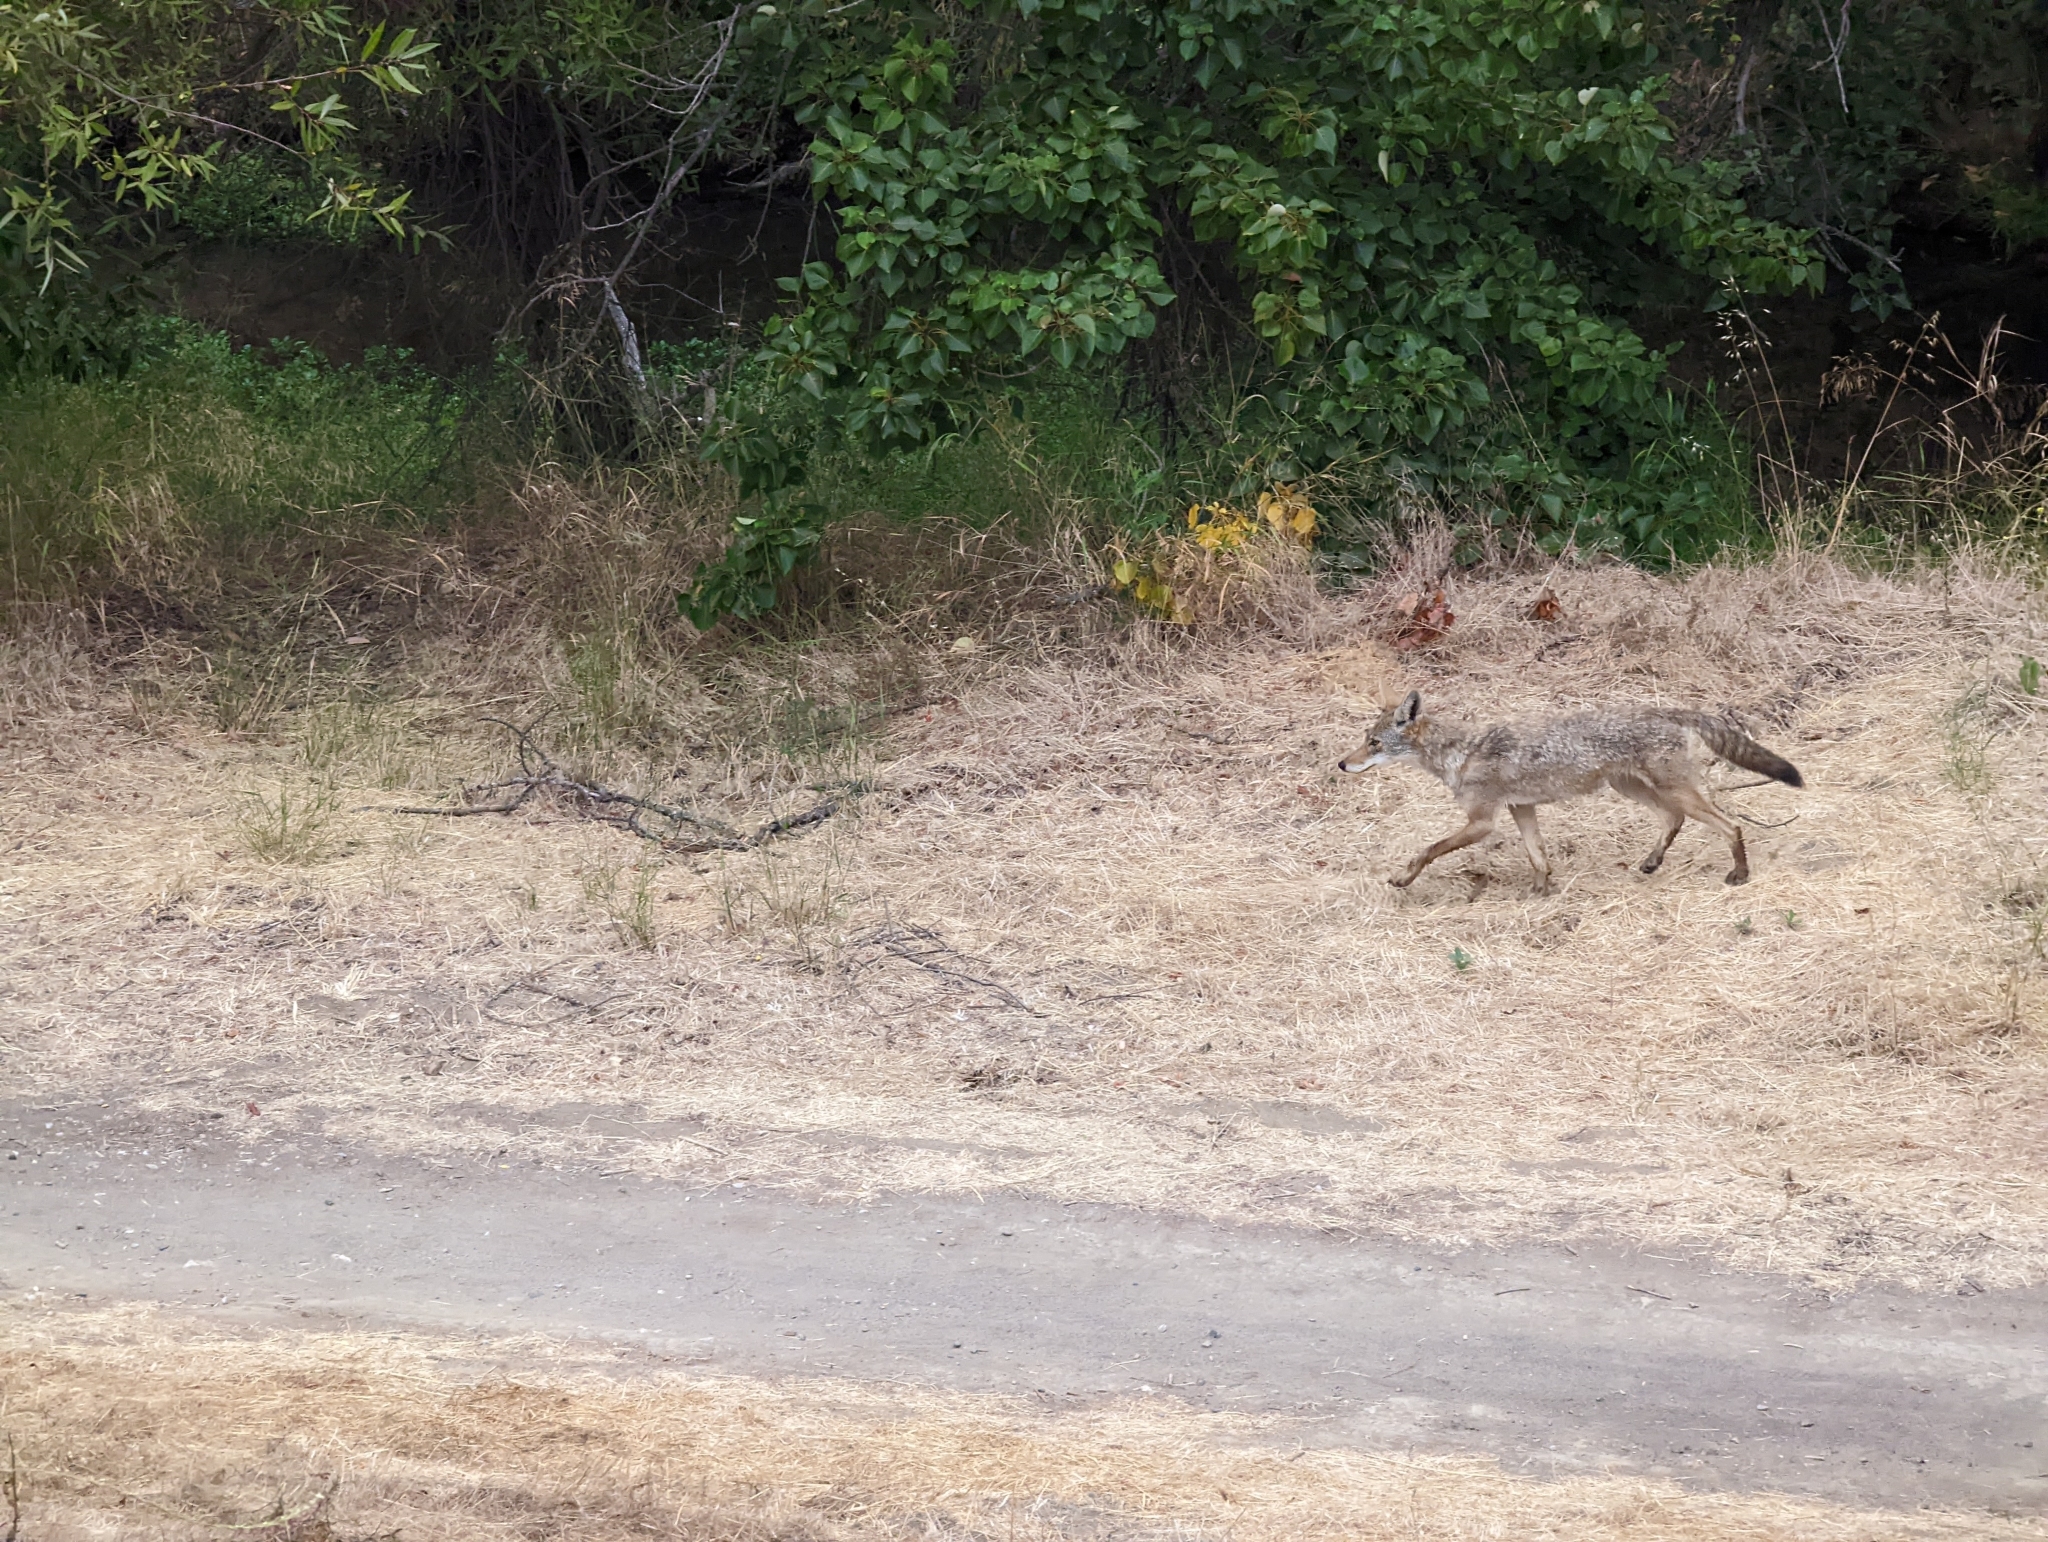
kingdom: Animalia
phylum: Chordata
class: Mammalia
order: Carnivora
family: Canidae
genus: Canis
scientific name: Canis latrans
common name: Coyote
